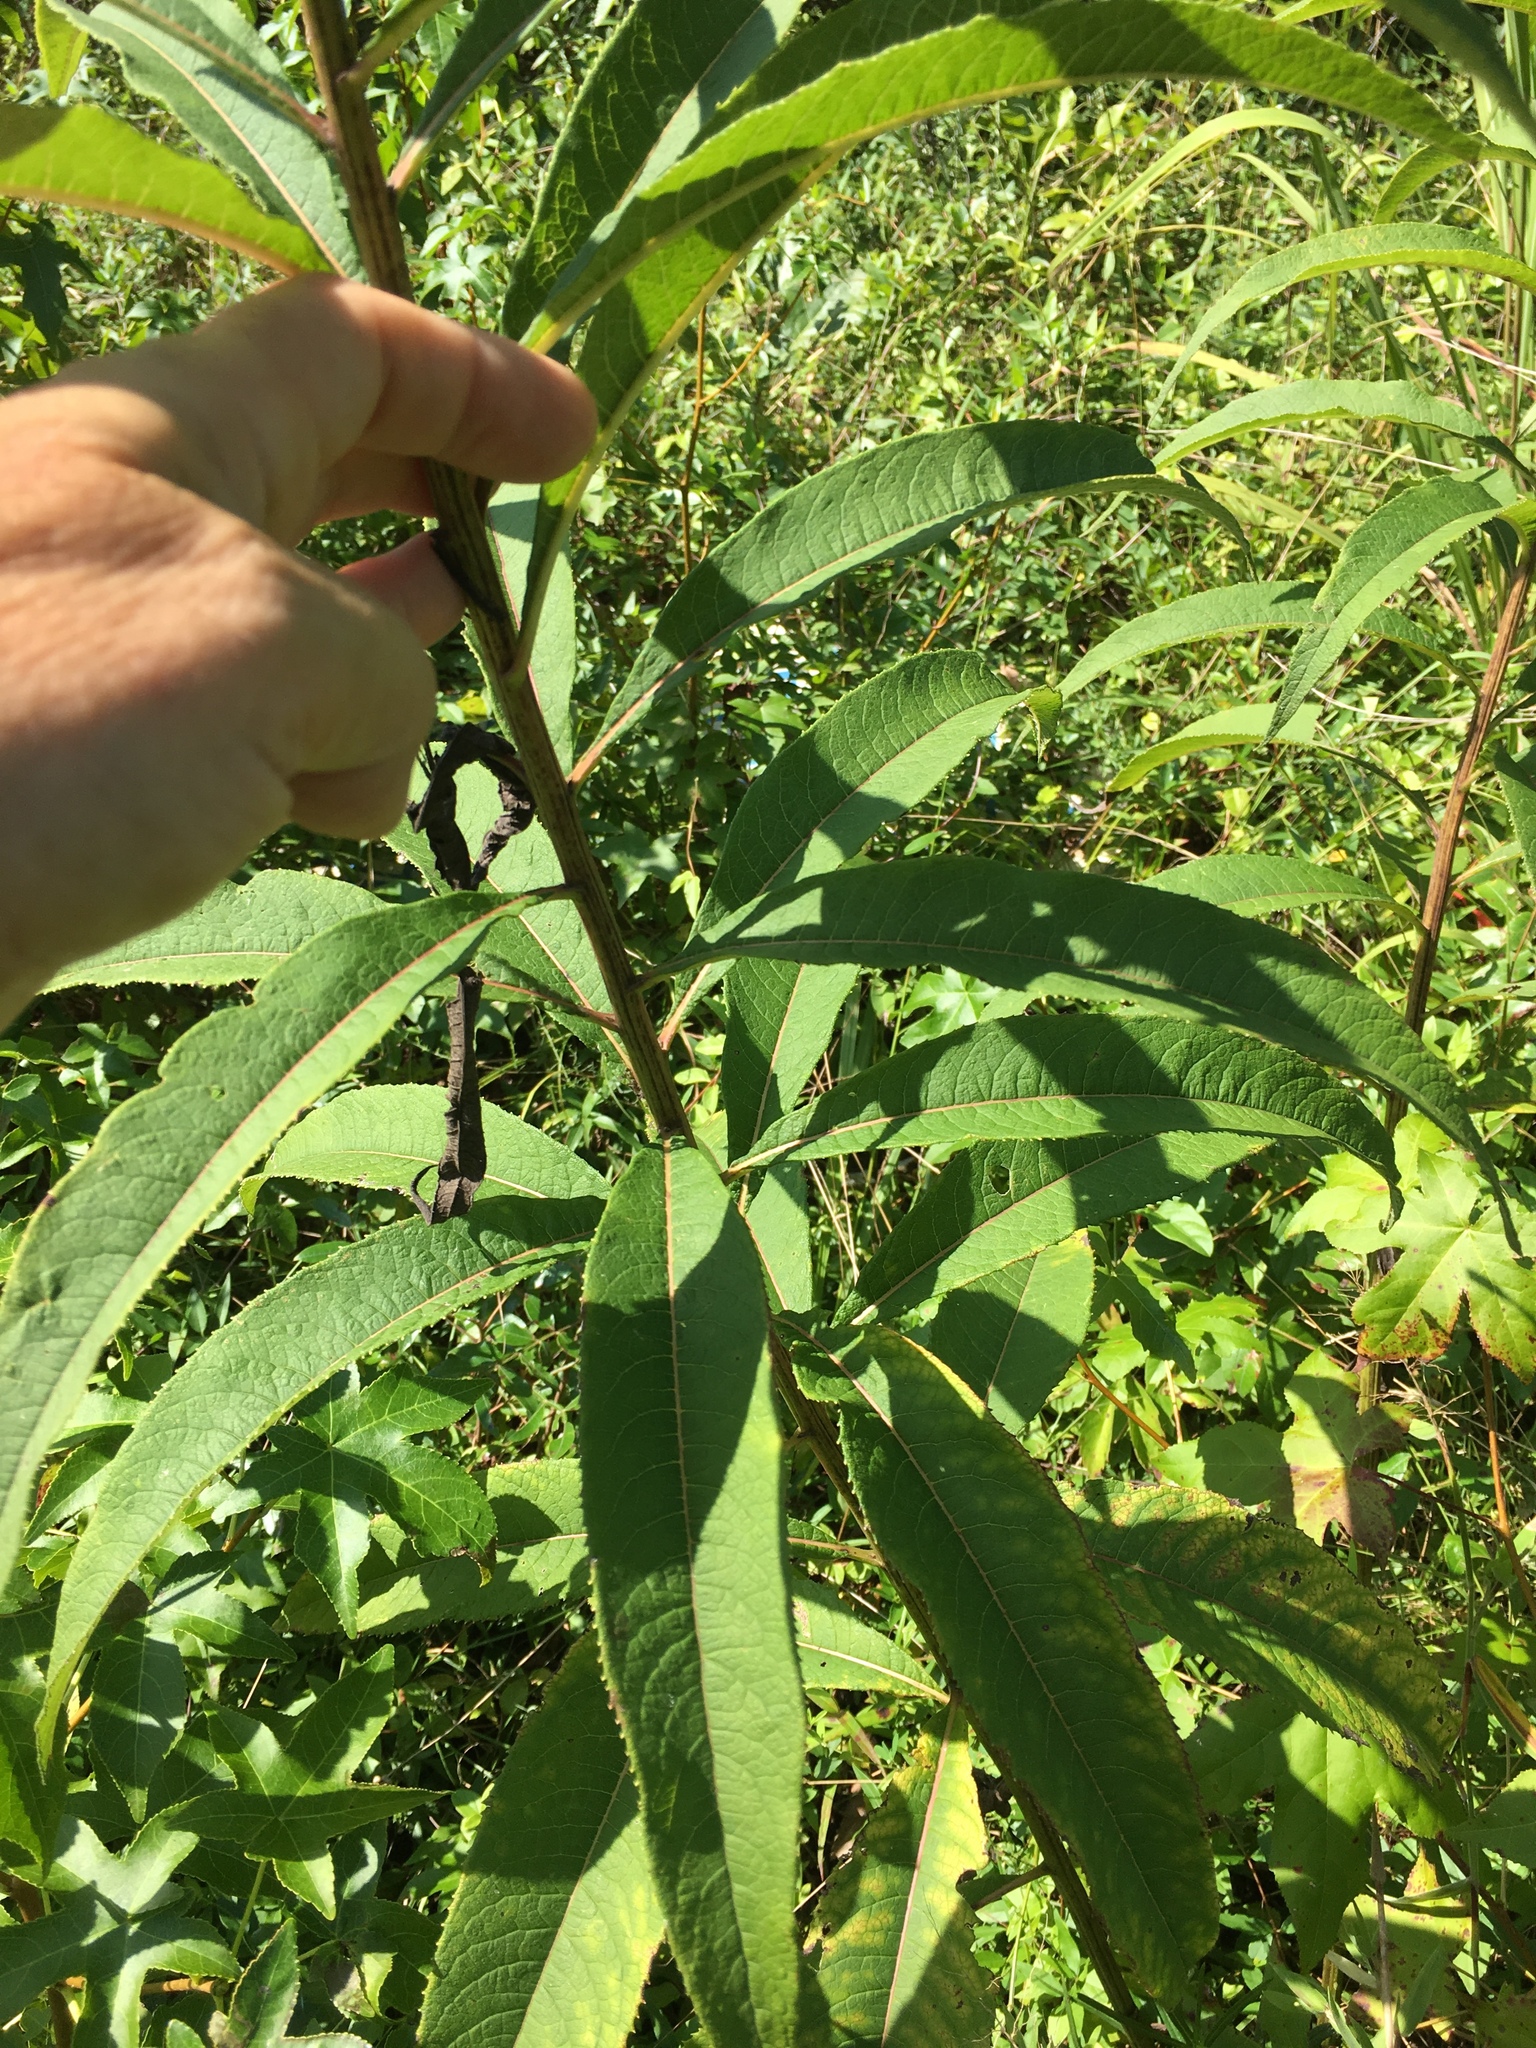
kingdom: Plantae
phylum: Tracheophyta
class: Magnoliopsida
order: Asterales
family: Asteraceae
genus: Vernonia
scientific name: Vernonia noveboracensis
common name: New york ironweed
